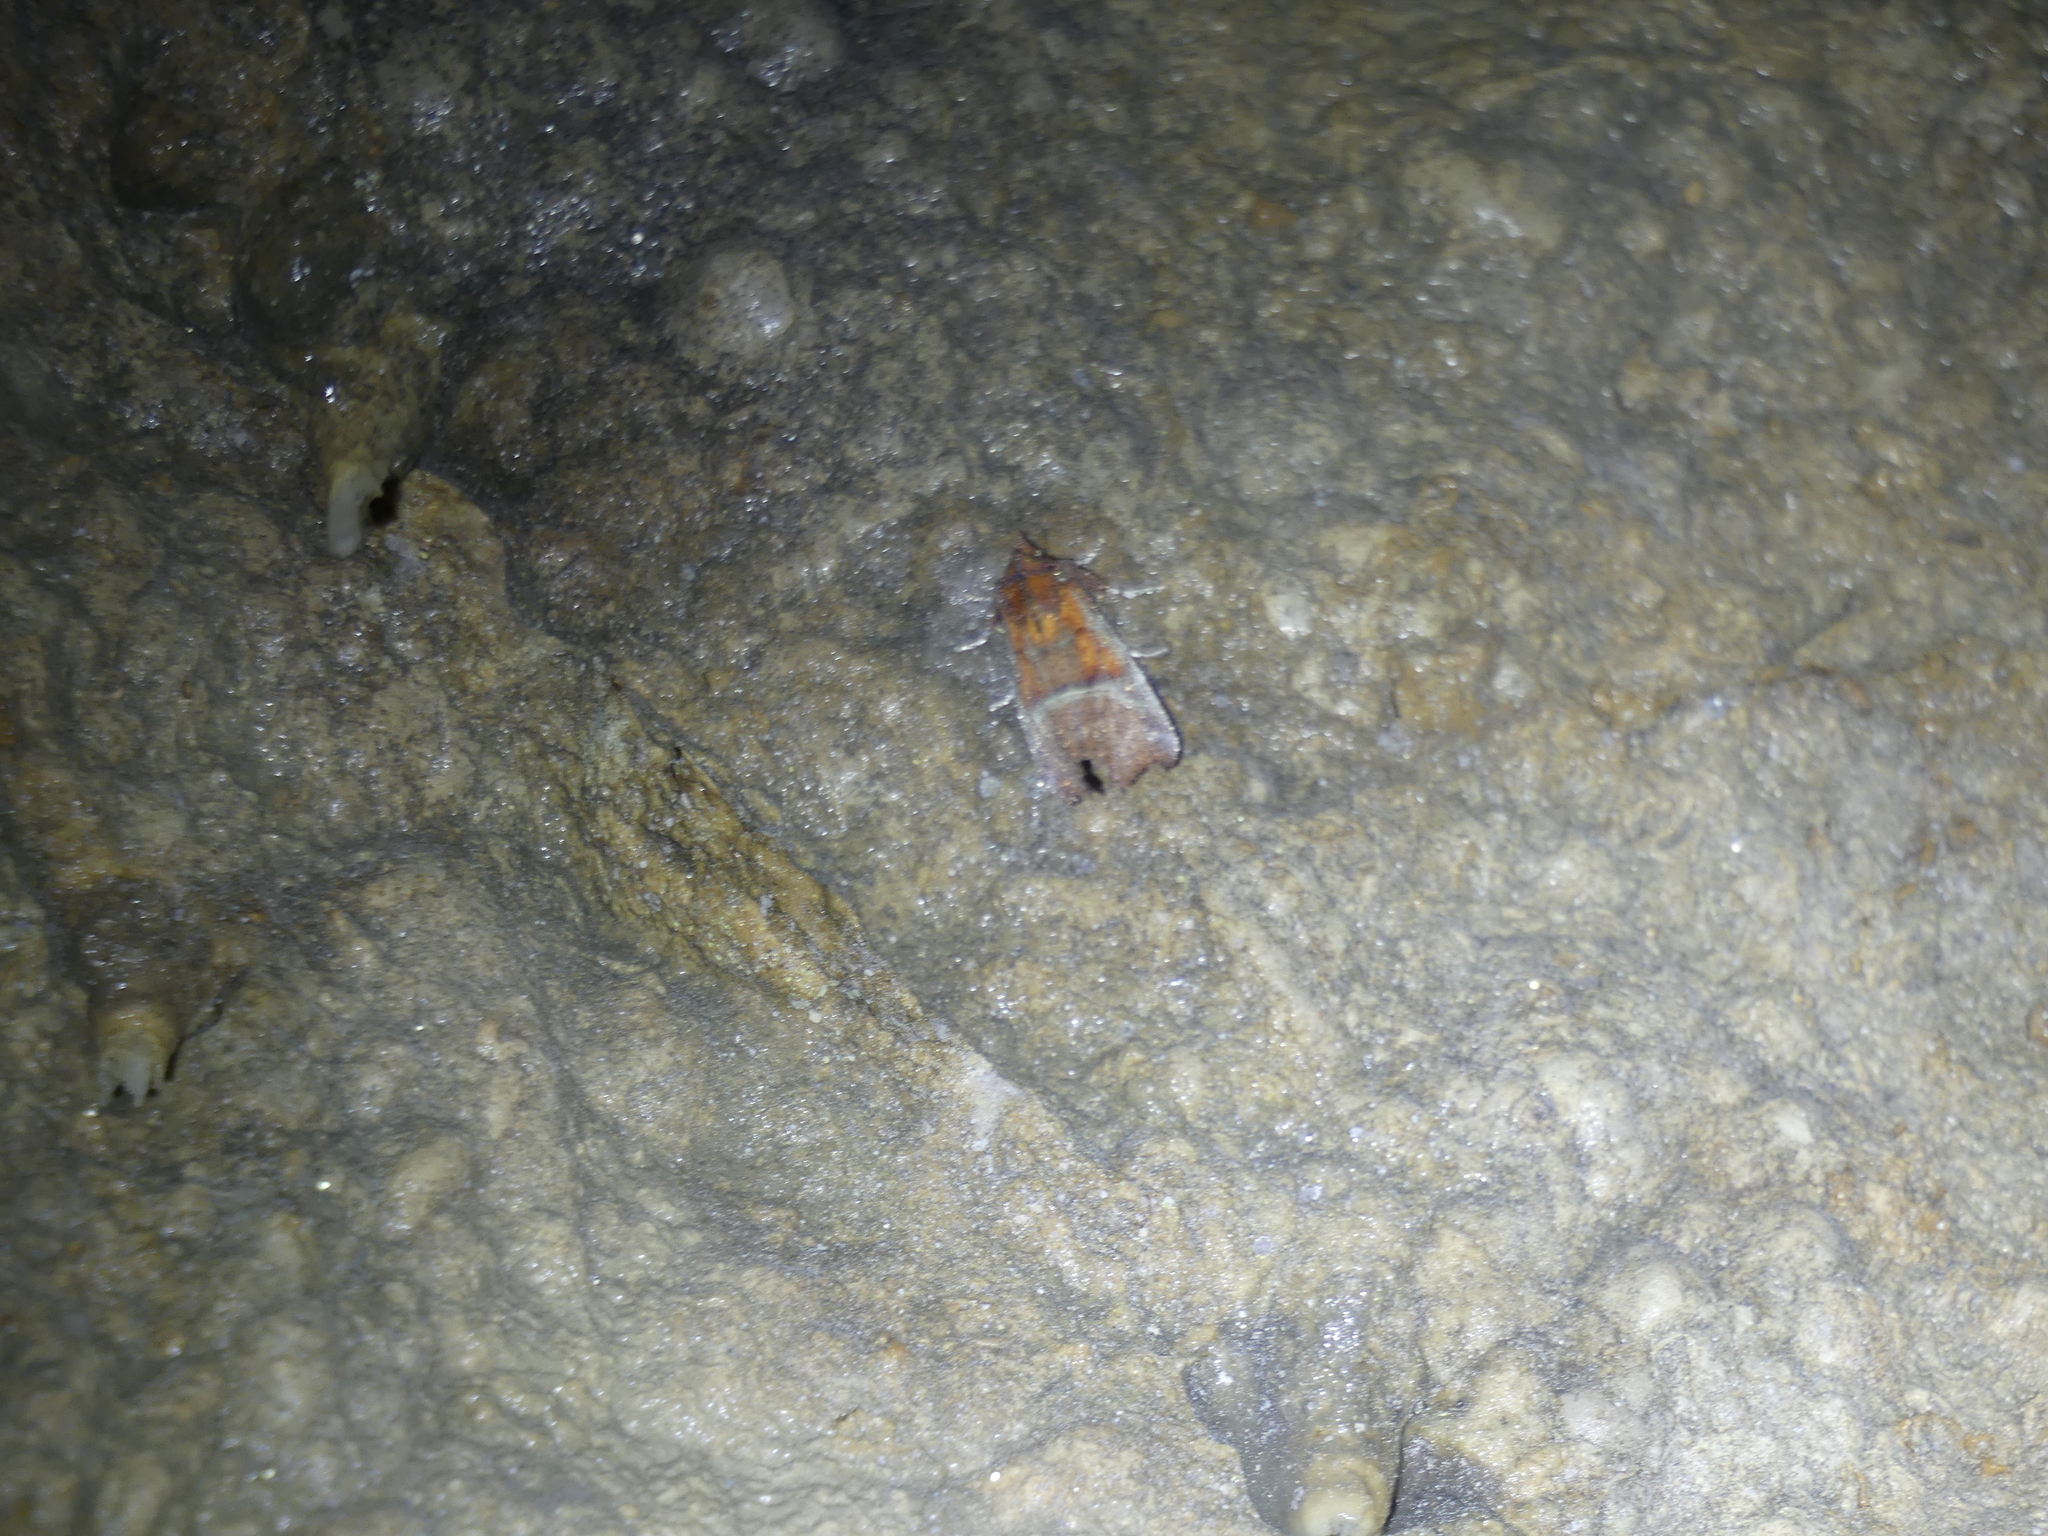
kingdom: Animalia
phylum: Arthropoda
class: Insecta
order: Lepidoptera
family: Erebidae
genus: Scoliopteryx
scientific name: Scoliopteryx libatrix
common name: Herald
